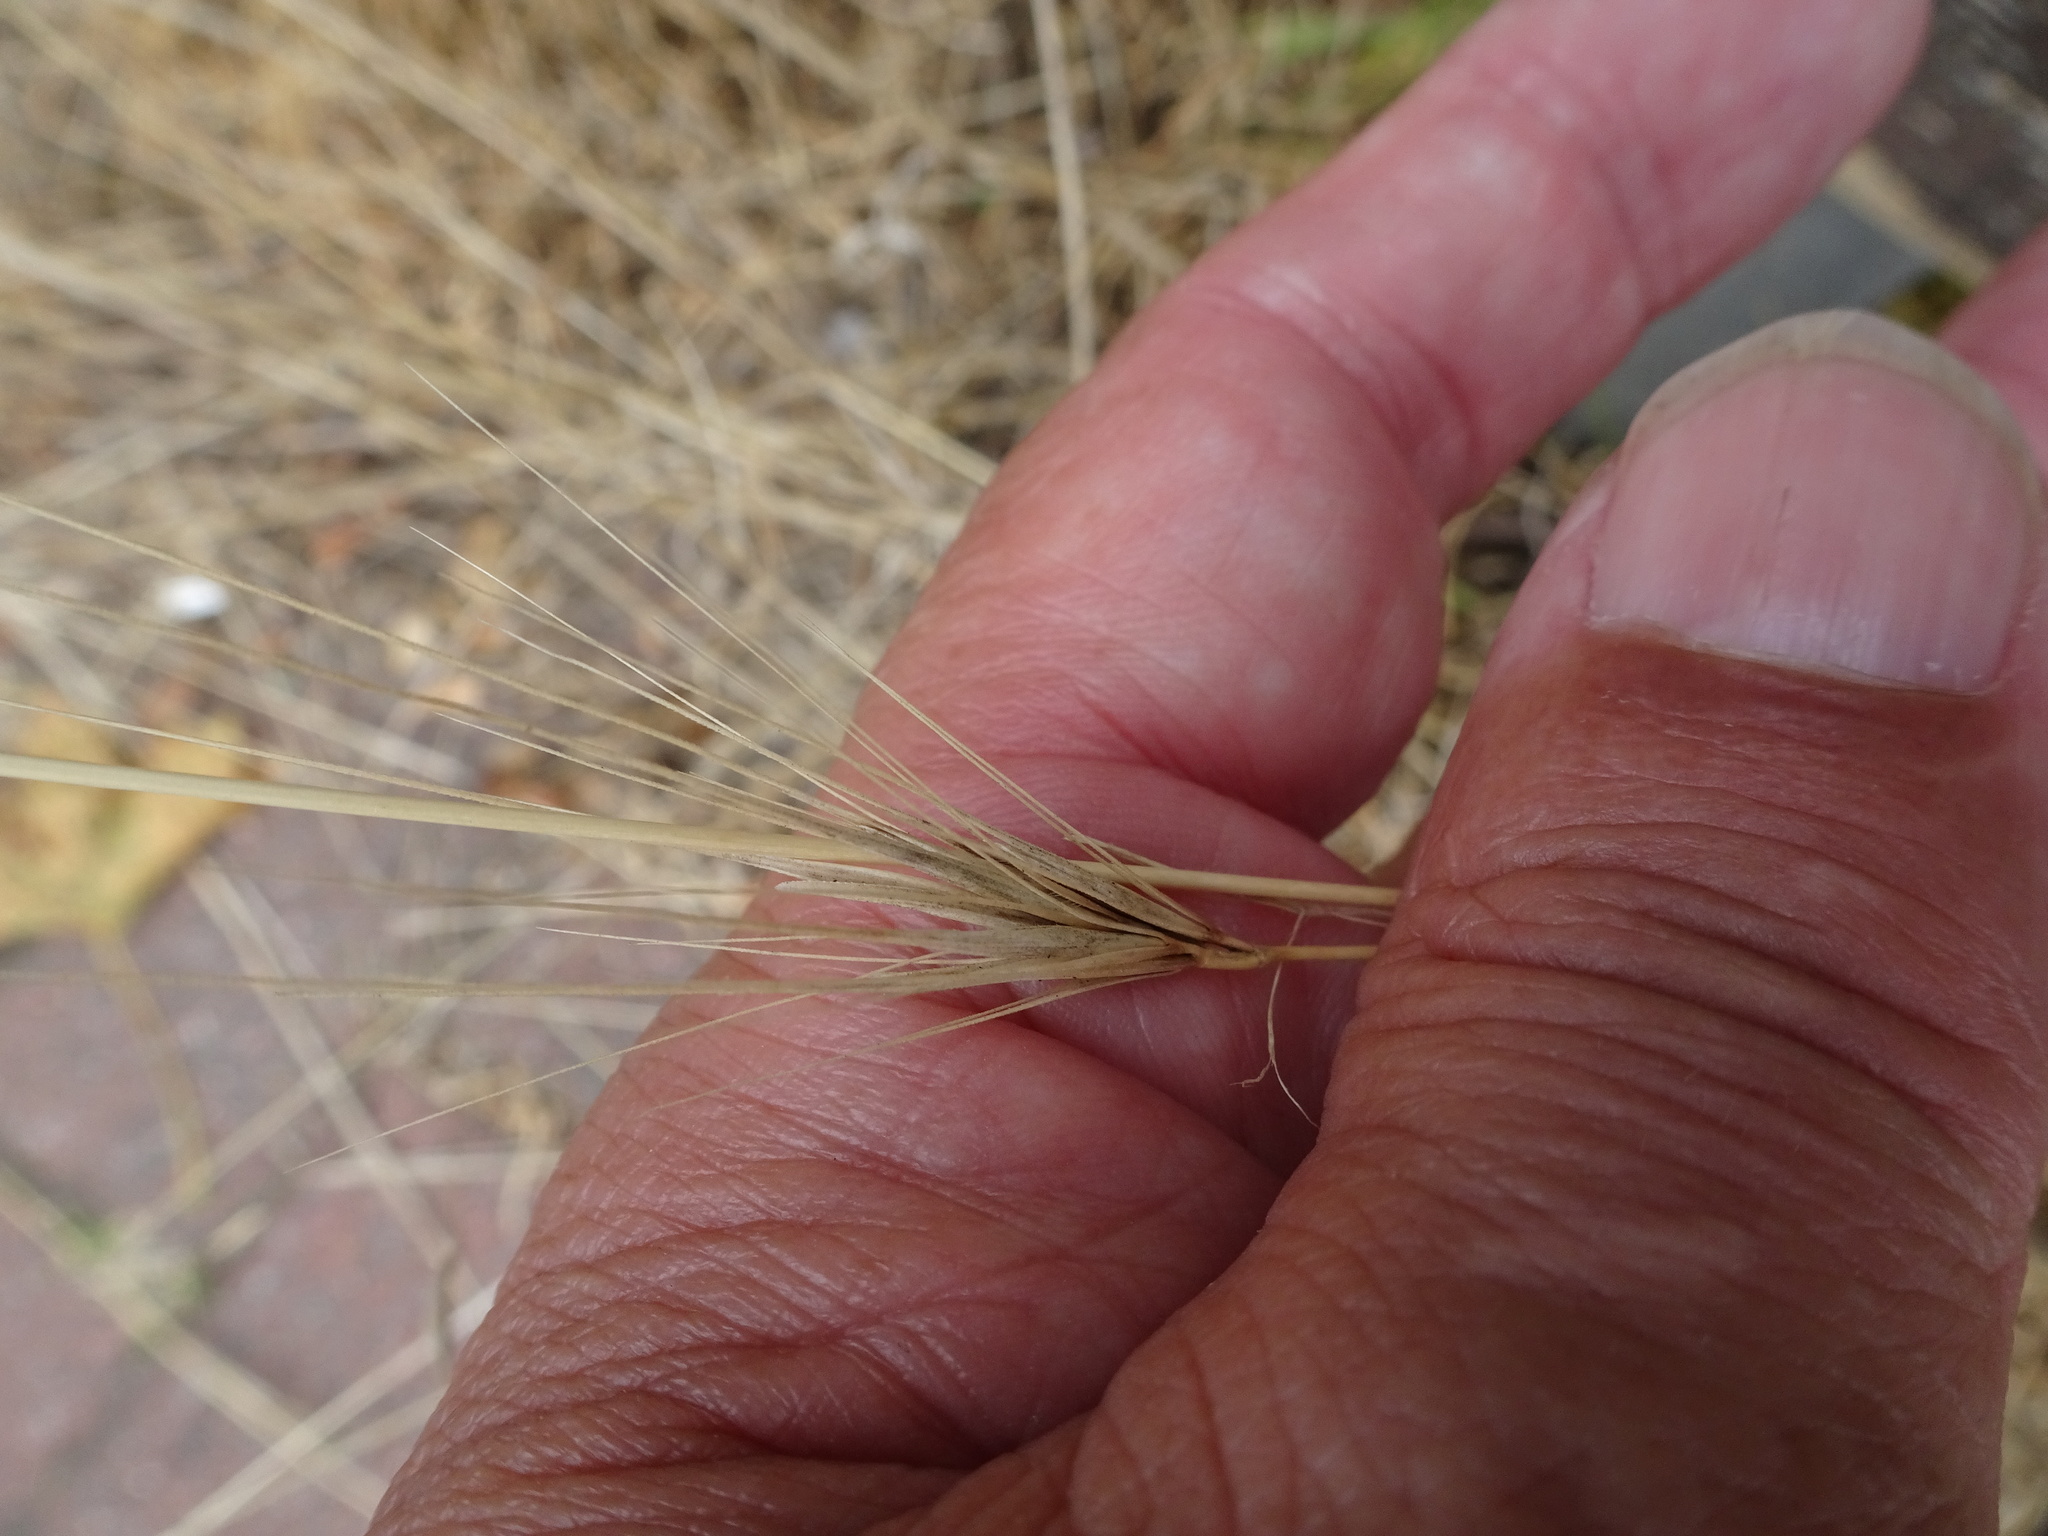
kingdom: Plantae
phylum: Tracheophyta
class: Liliopsida
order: Poales
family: Poaceae
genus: Hordeum
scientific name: Hordeum murinum
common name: Wall barley
